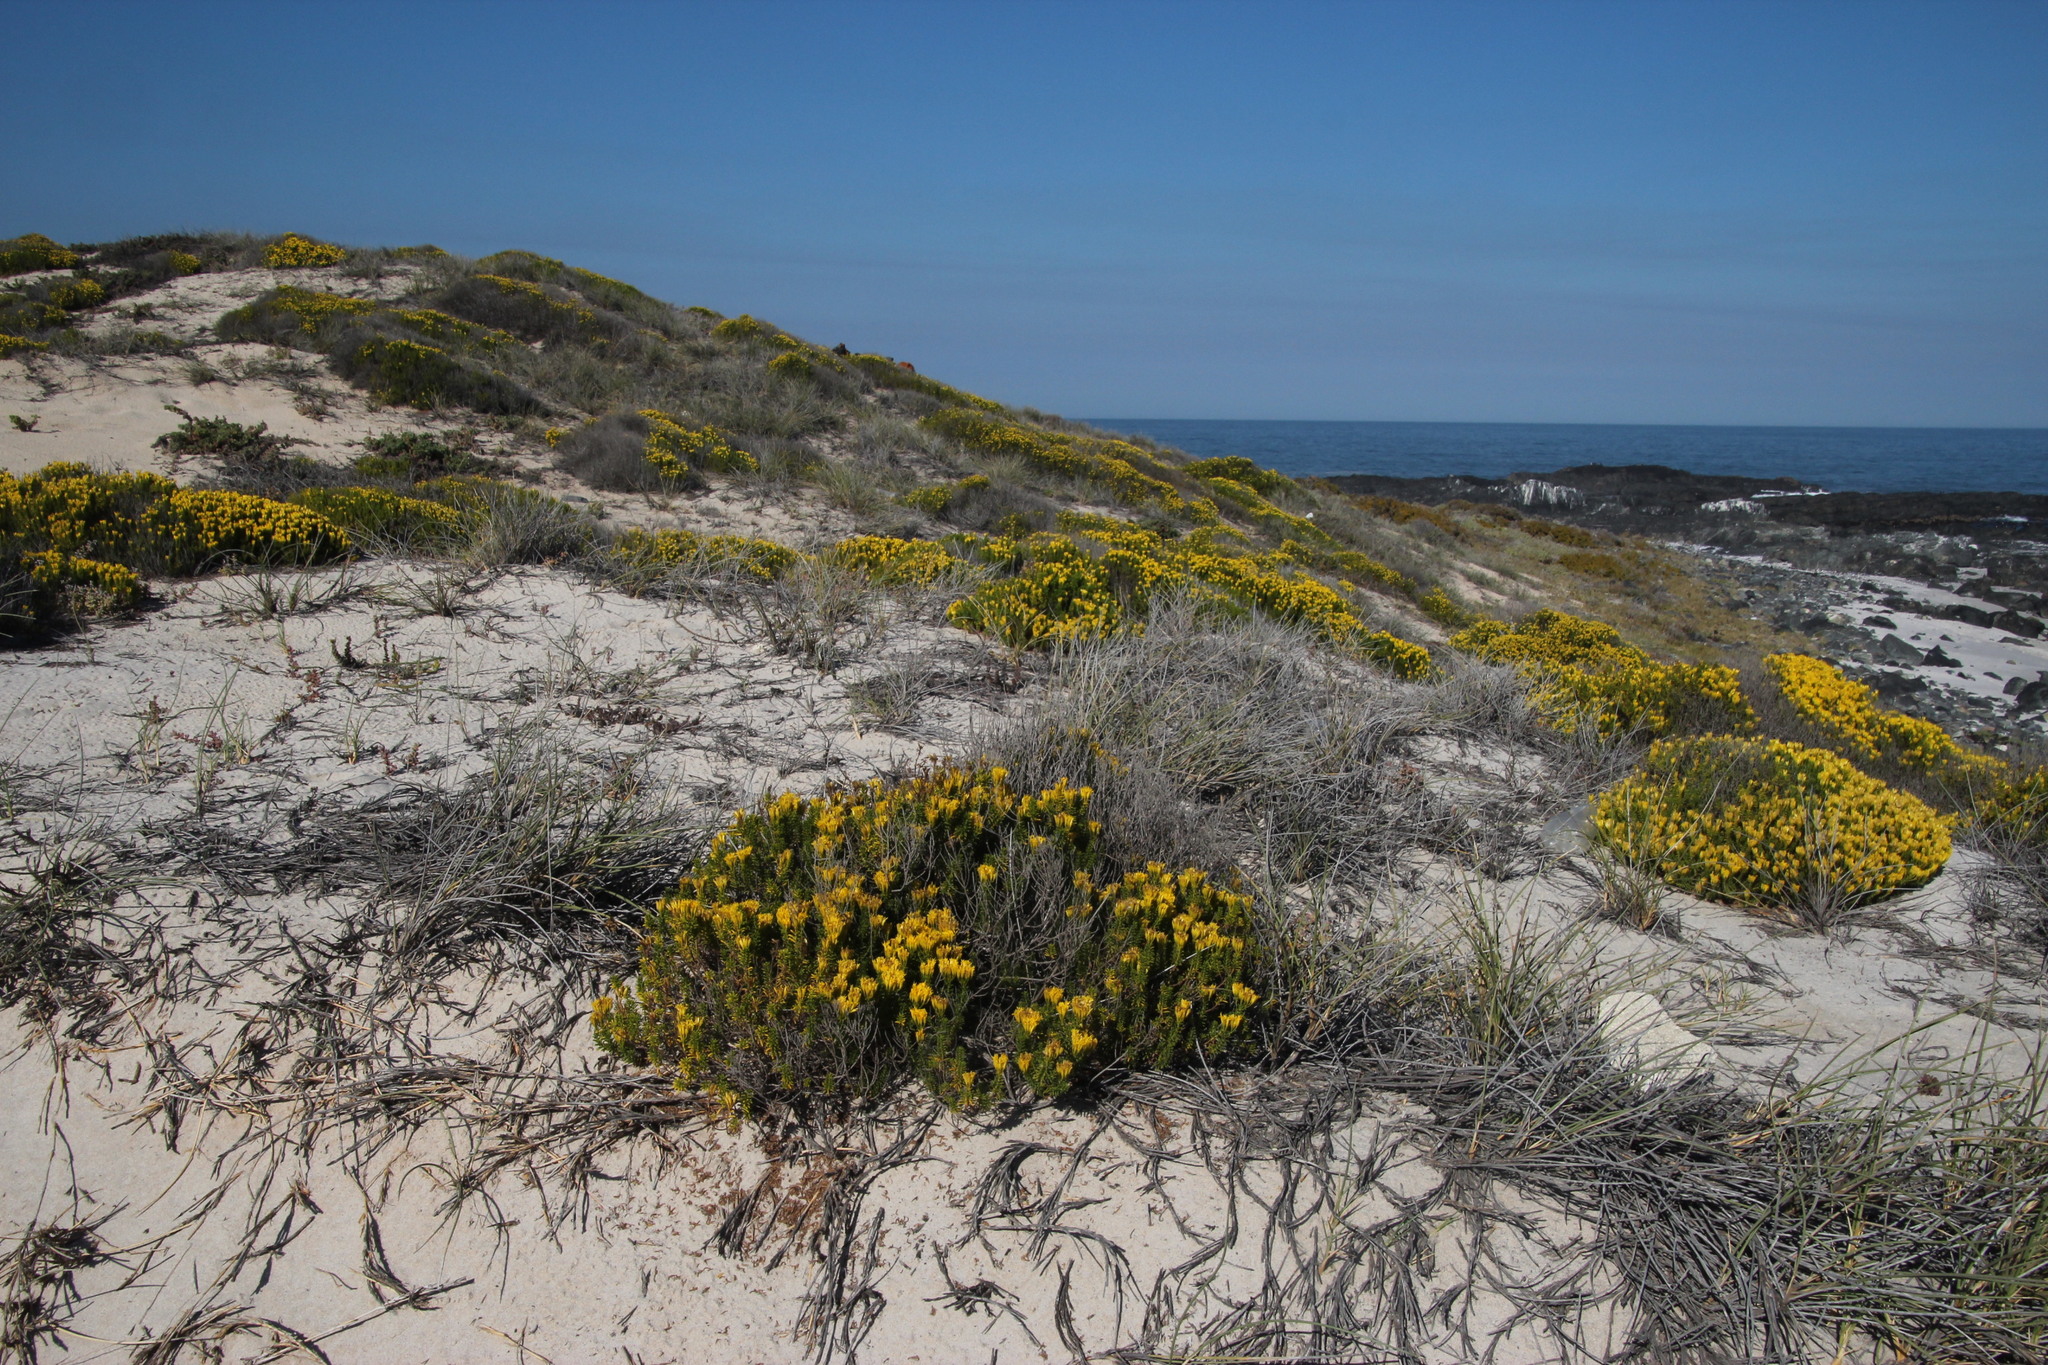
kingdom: Plantae
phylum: Tracheophyta
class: Magnoliopsida
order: Asterales
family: Asteraceae
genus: Pteronia
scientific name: Pteronia uncinata
